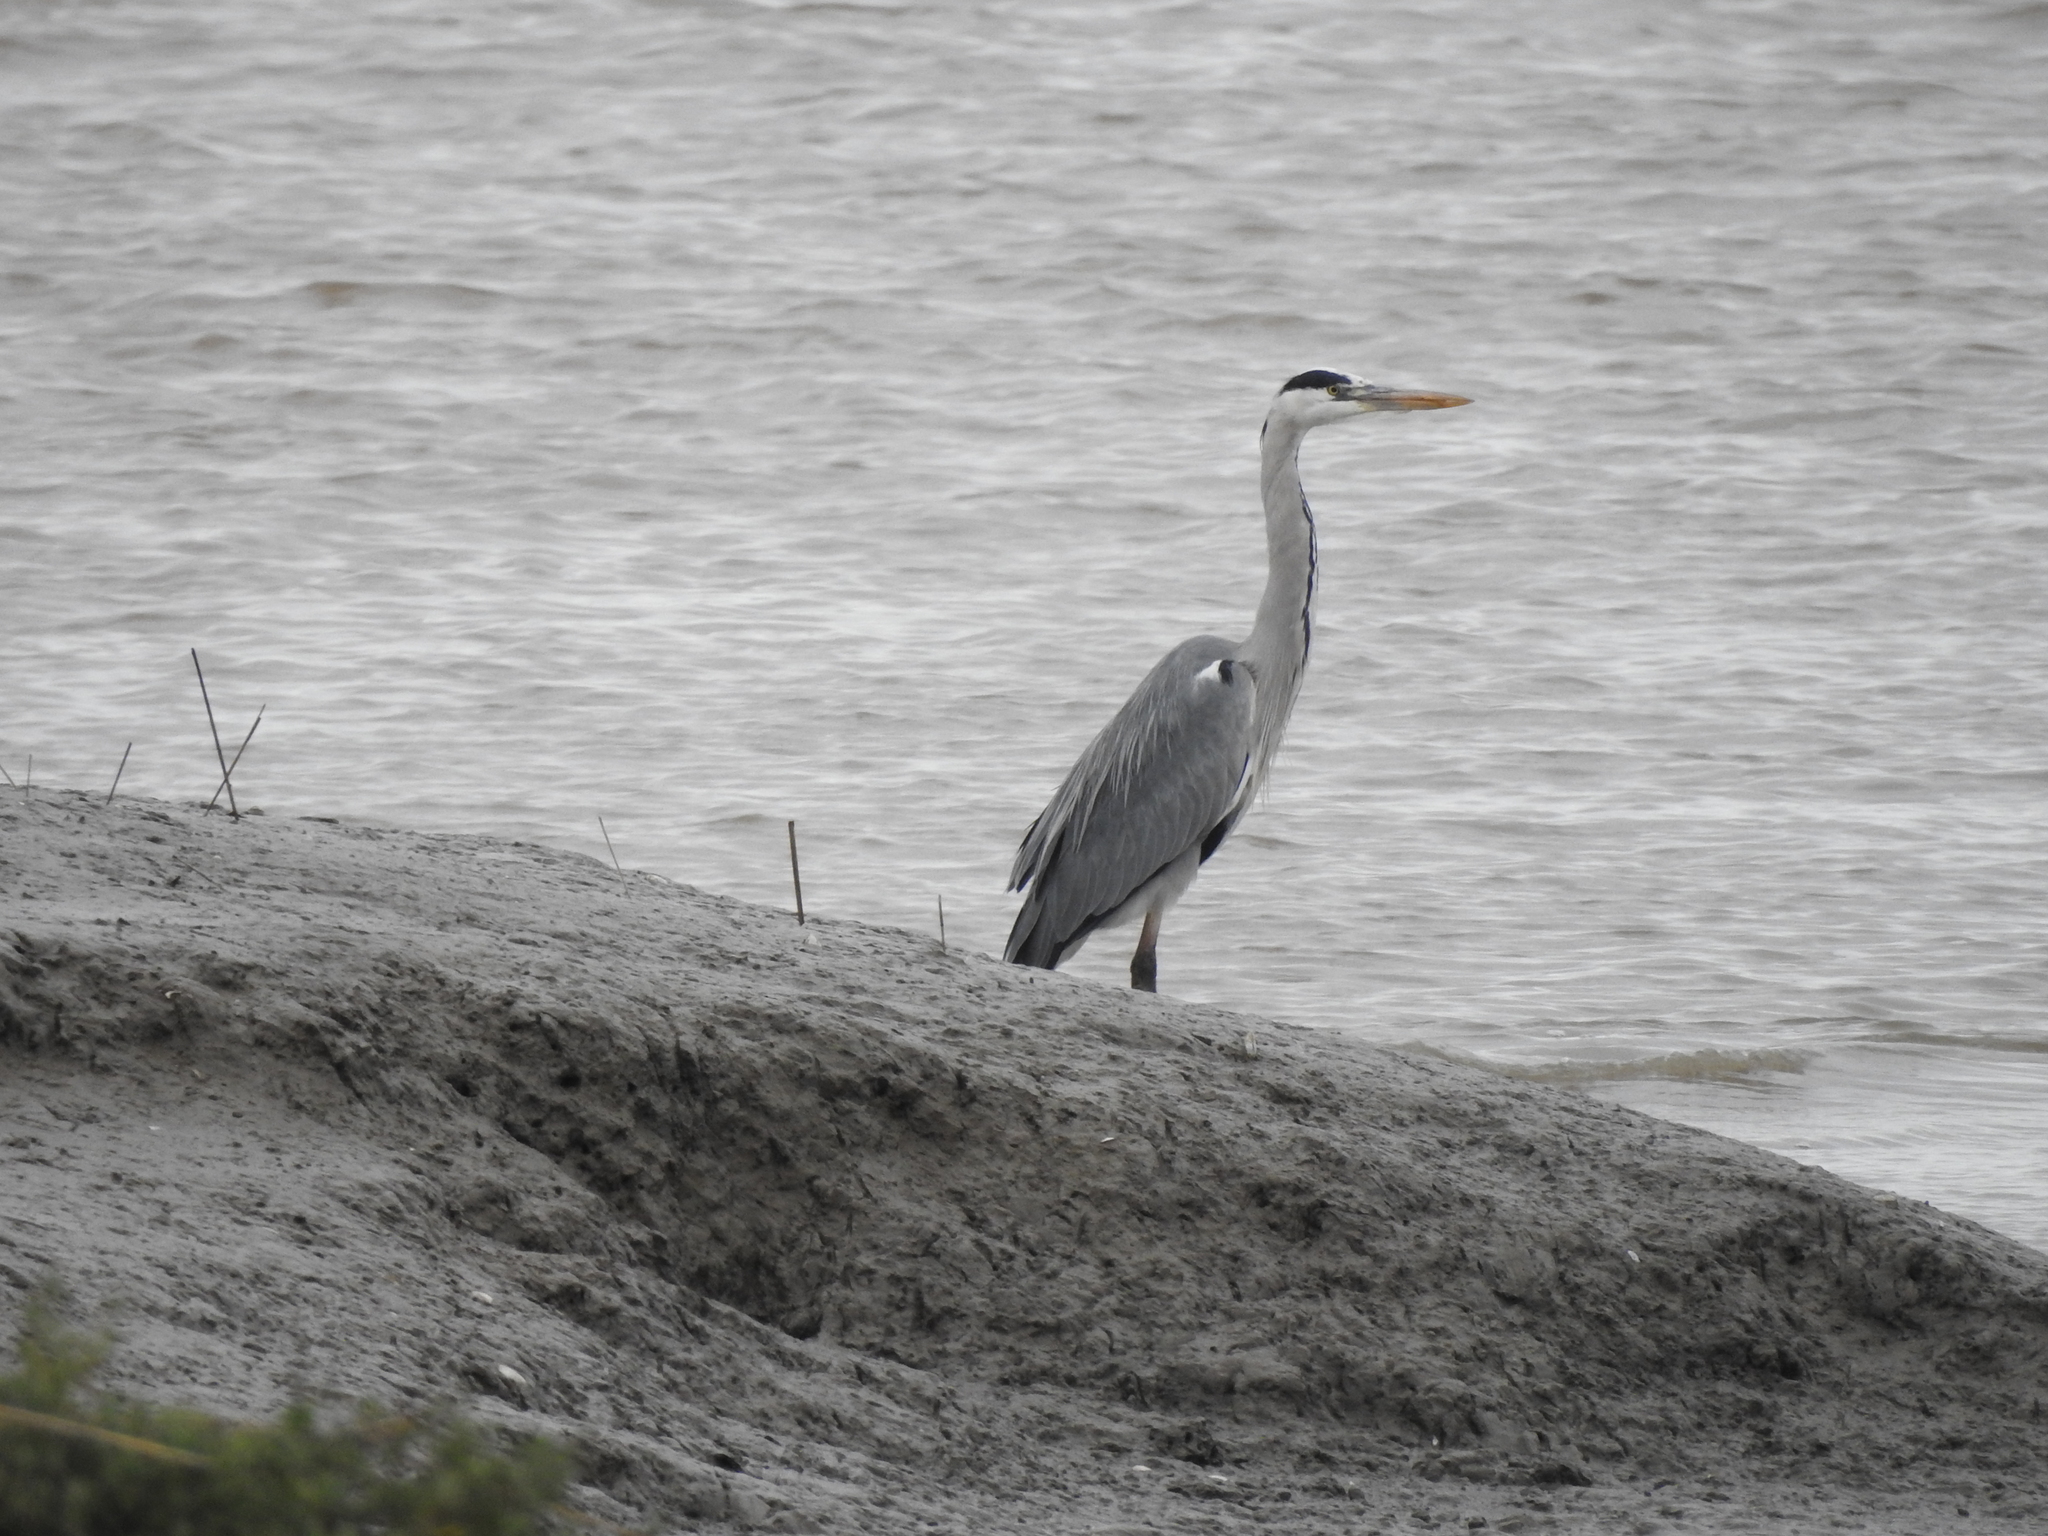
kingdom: Animalia
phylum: Chordata
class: Aves
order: Pelecaniformes
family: Ardeidae
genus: Ardea
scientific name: Ardea cinerea
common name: Grey heron
